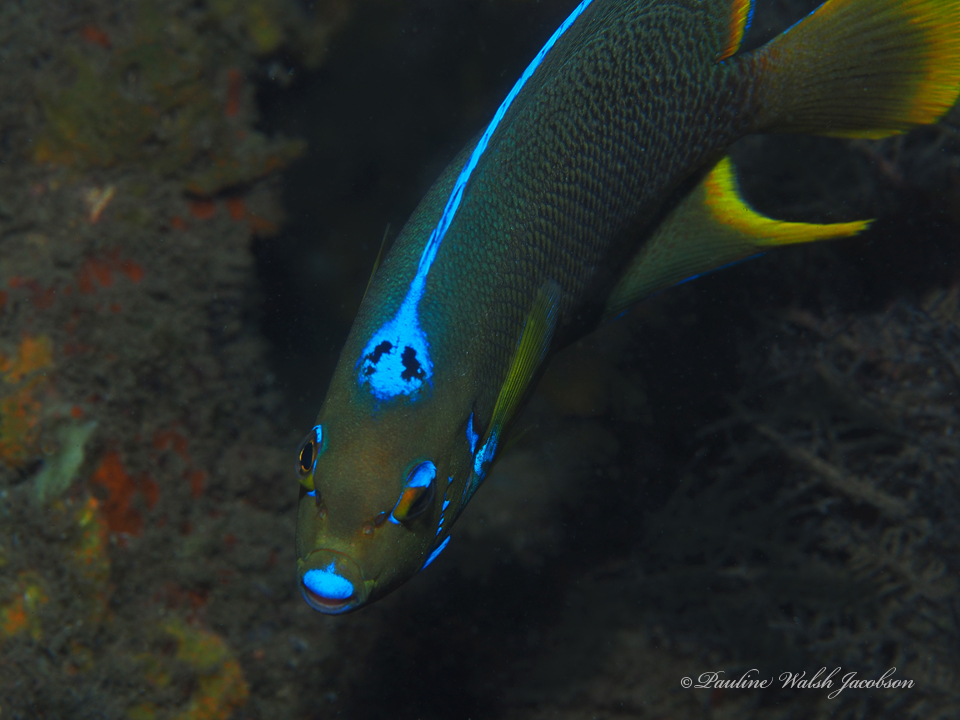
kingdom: Animalia
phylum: Chordata
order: Perciformes
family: Pomacanthidae
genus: Holacanthus
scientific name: Holacanthus ciliaris
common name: Queen angelfish
